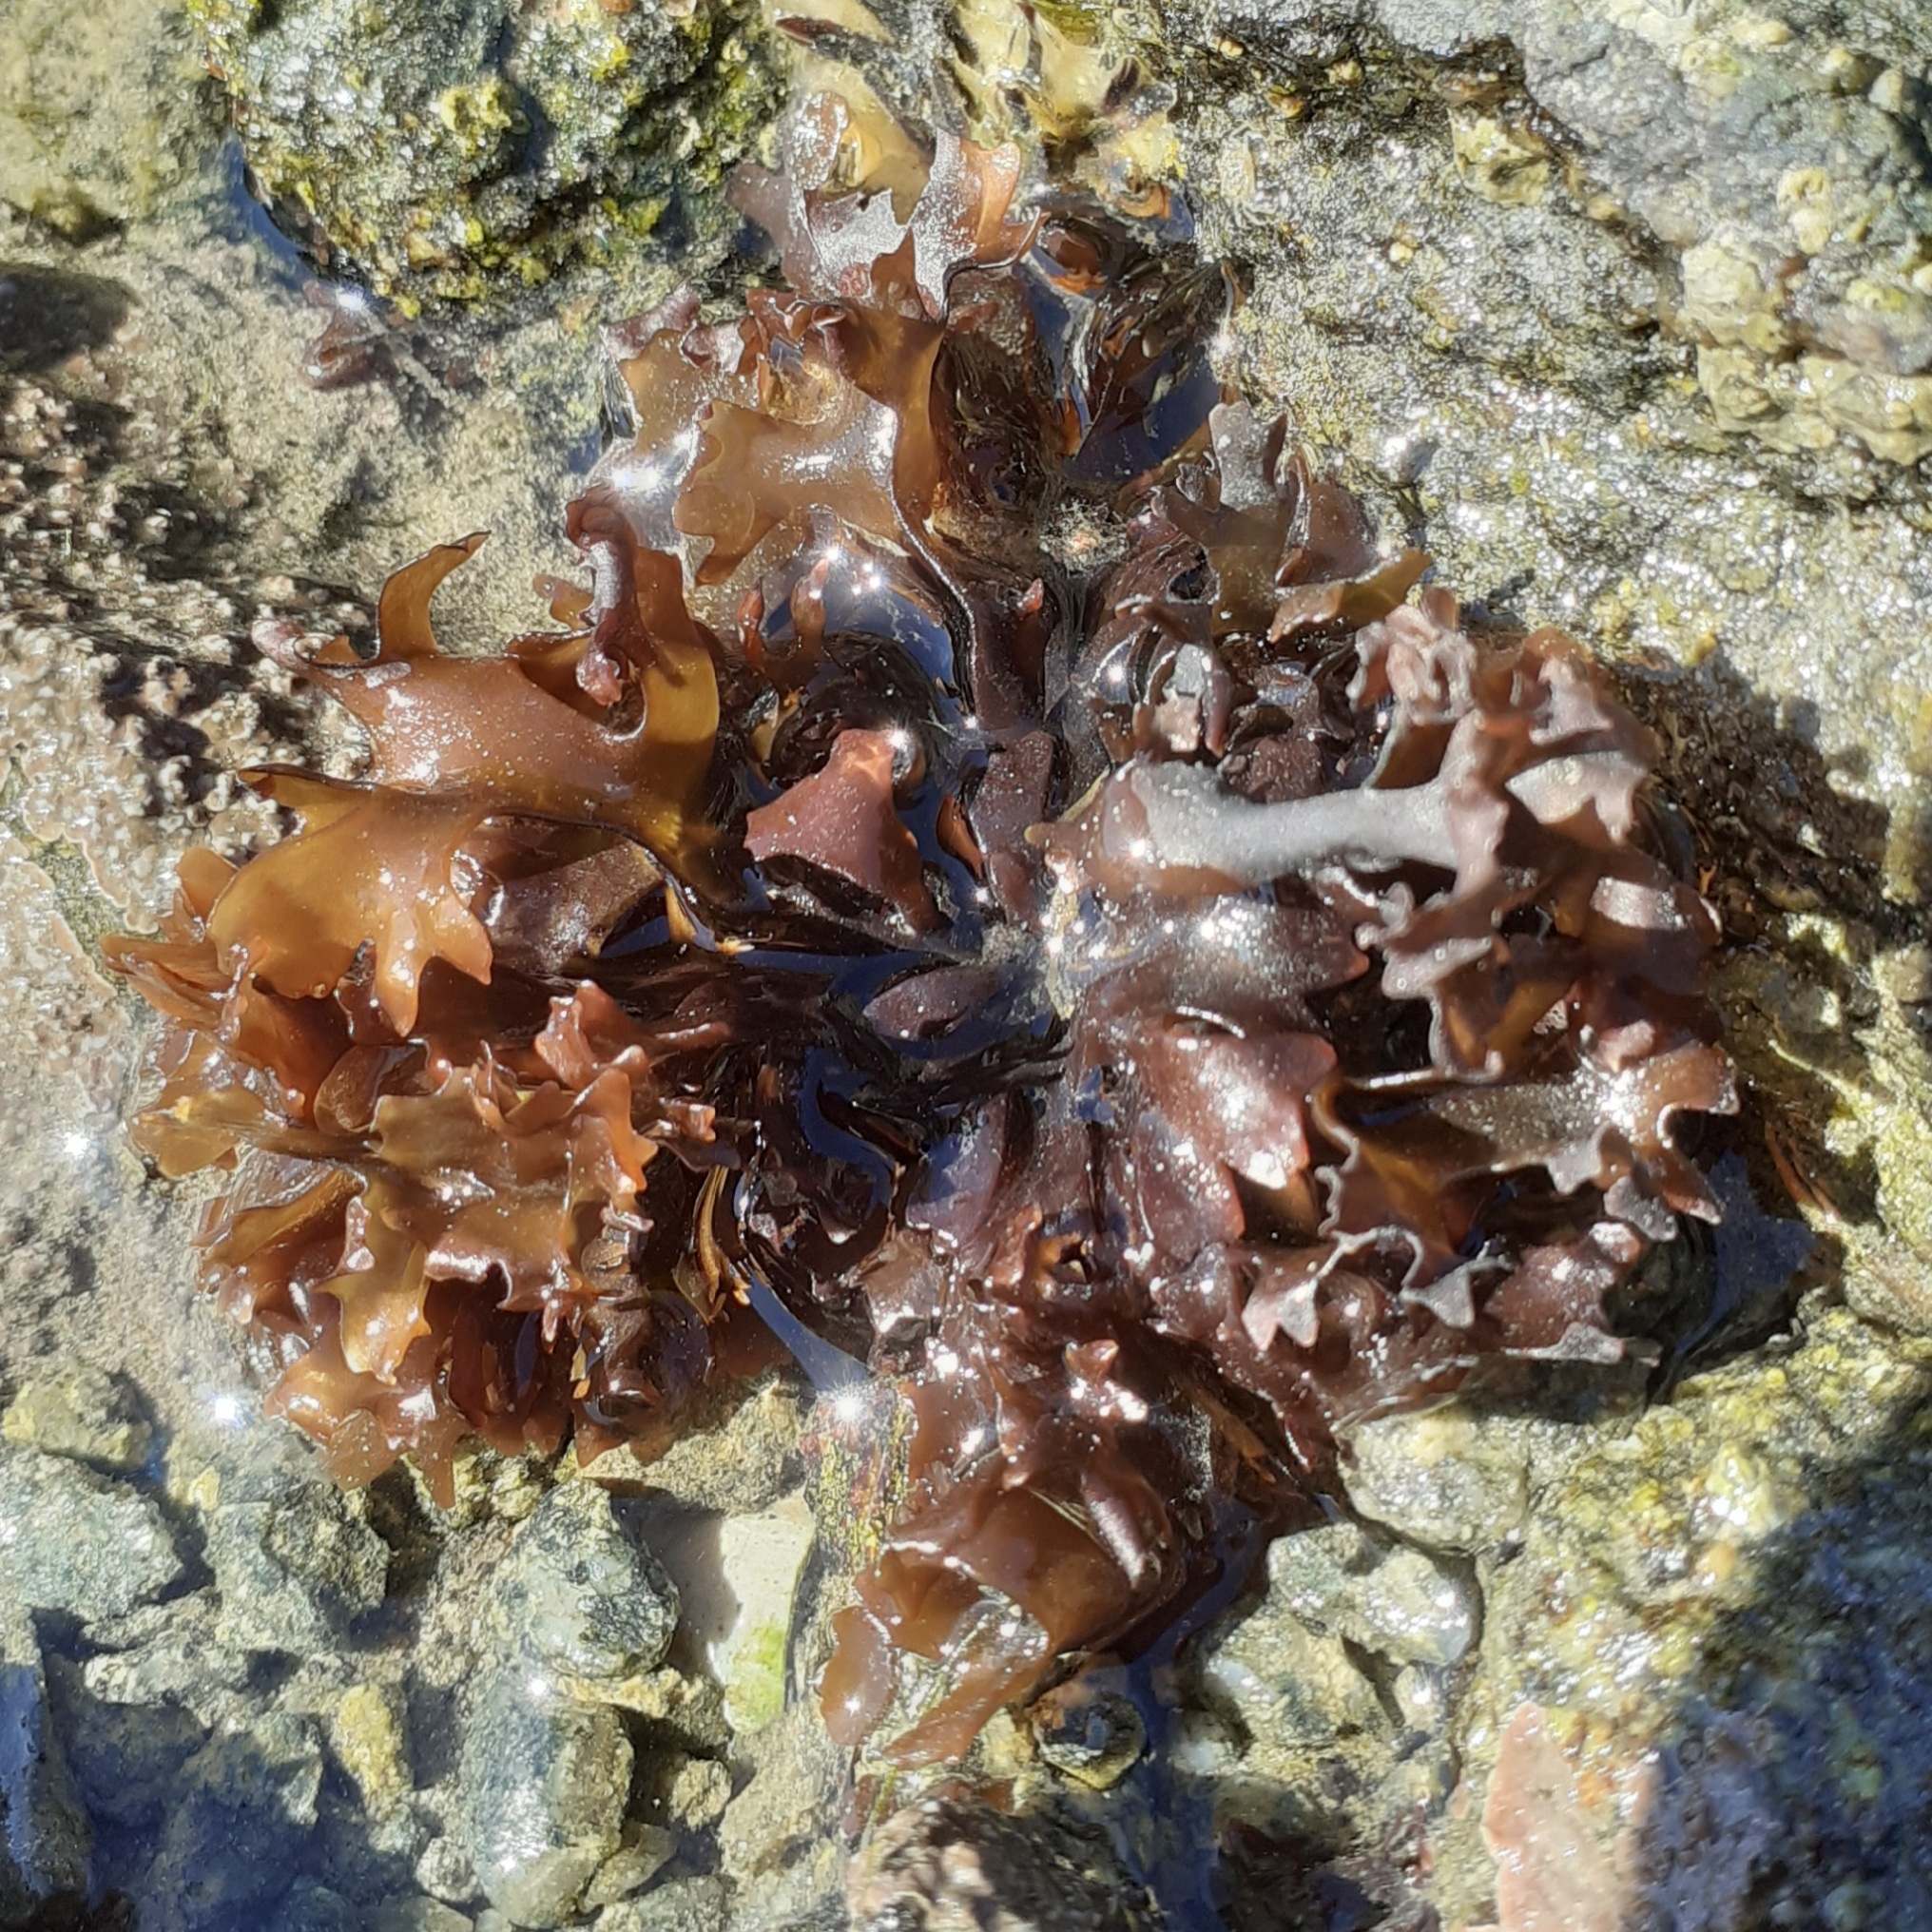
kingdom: Plantae
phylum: Rhodophyta
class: Florideophyceae
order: Gigartinales
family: Gigartinaceae
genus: Chondrus
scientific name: Chondrus crispus
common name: Carrageen
